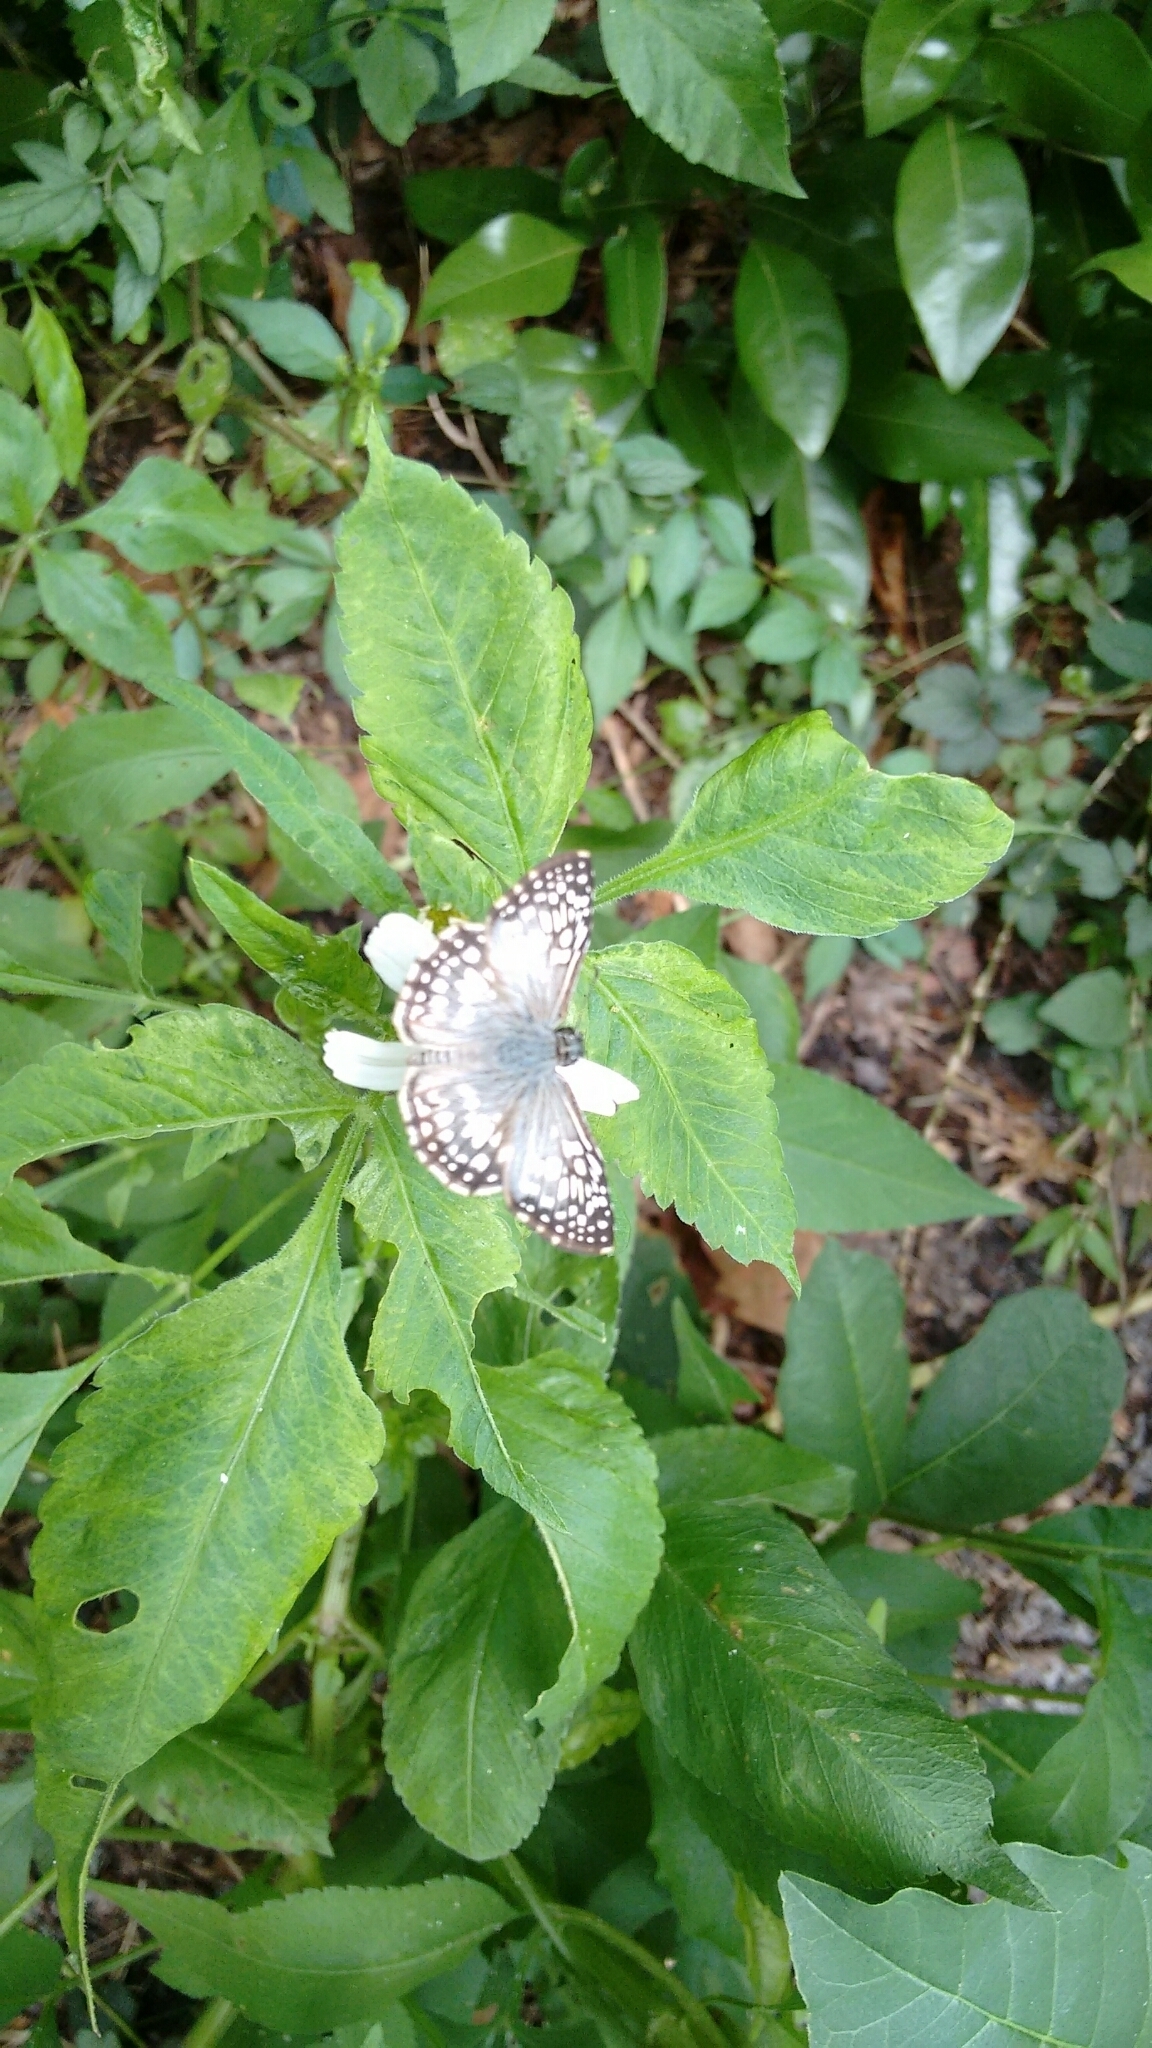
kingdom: Animalia
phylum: Arthropoda
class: Insecta
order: Lepidoptera
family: Hesperiidae
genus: Pyrgus
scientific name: Pyrgus oileus
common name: Tropical checkered-skipper
